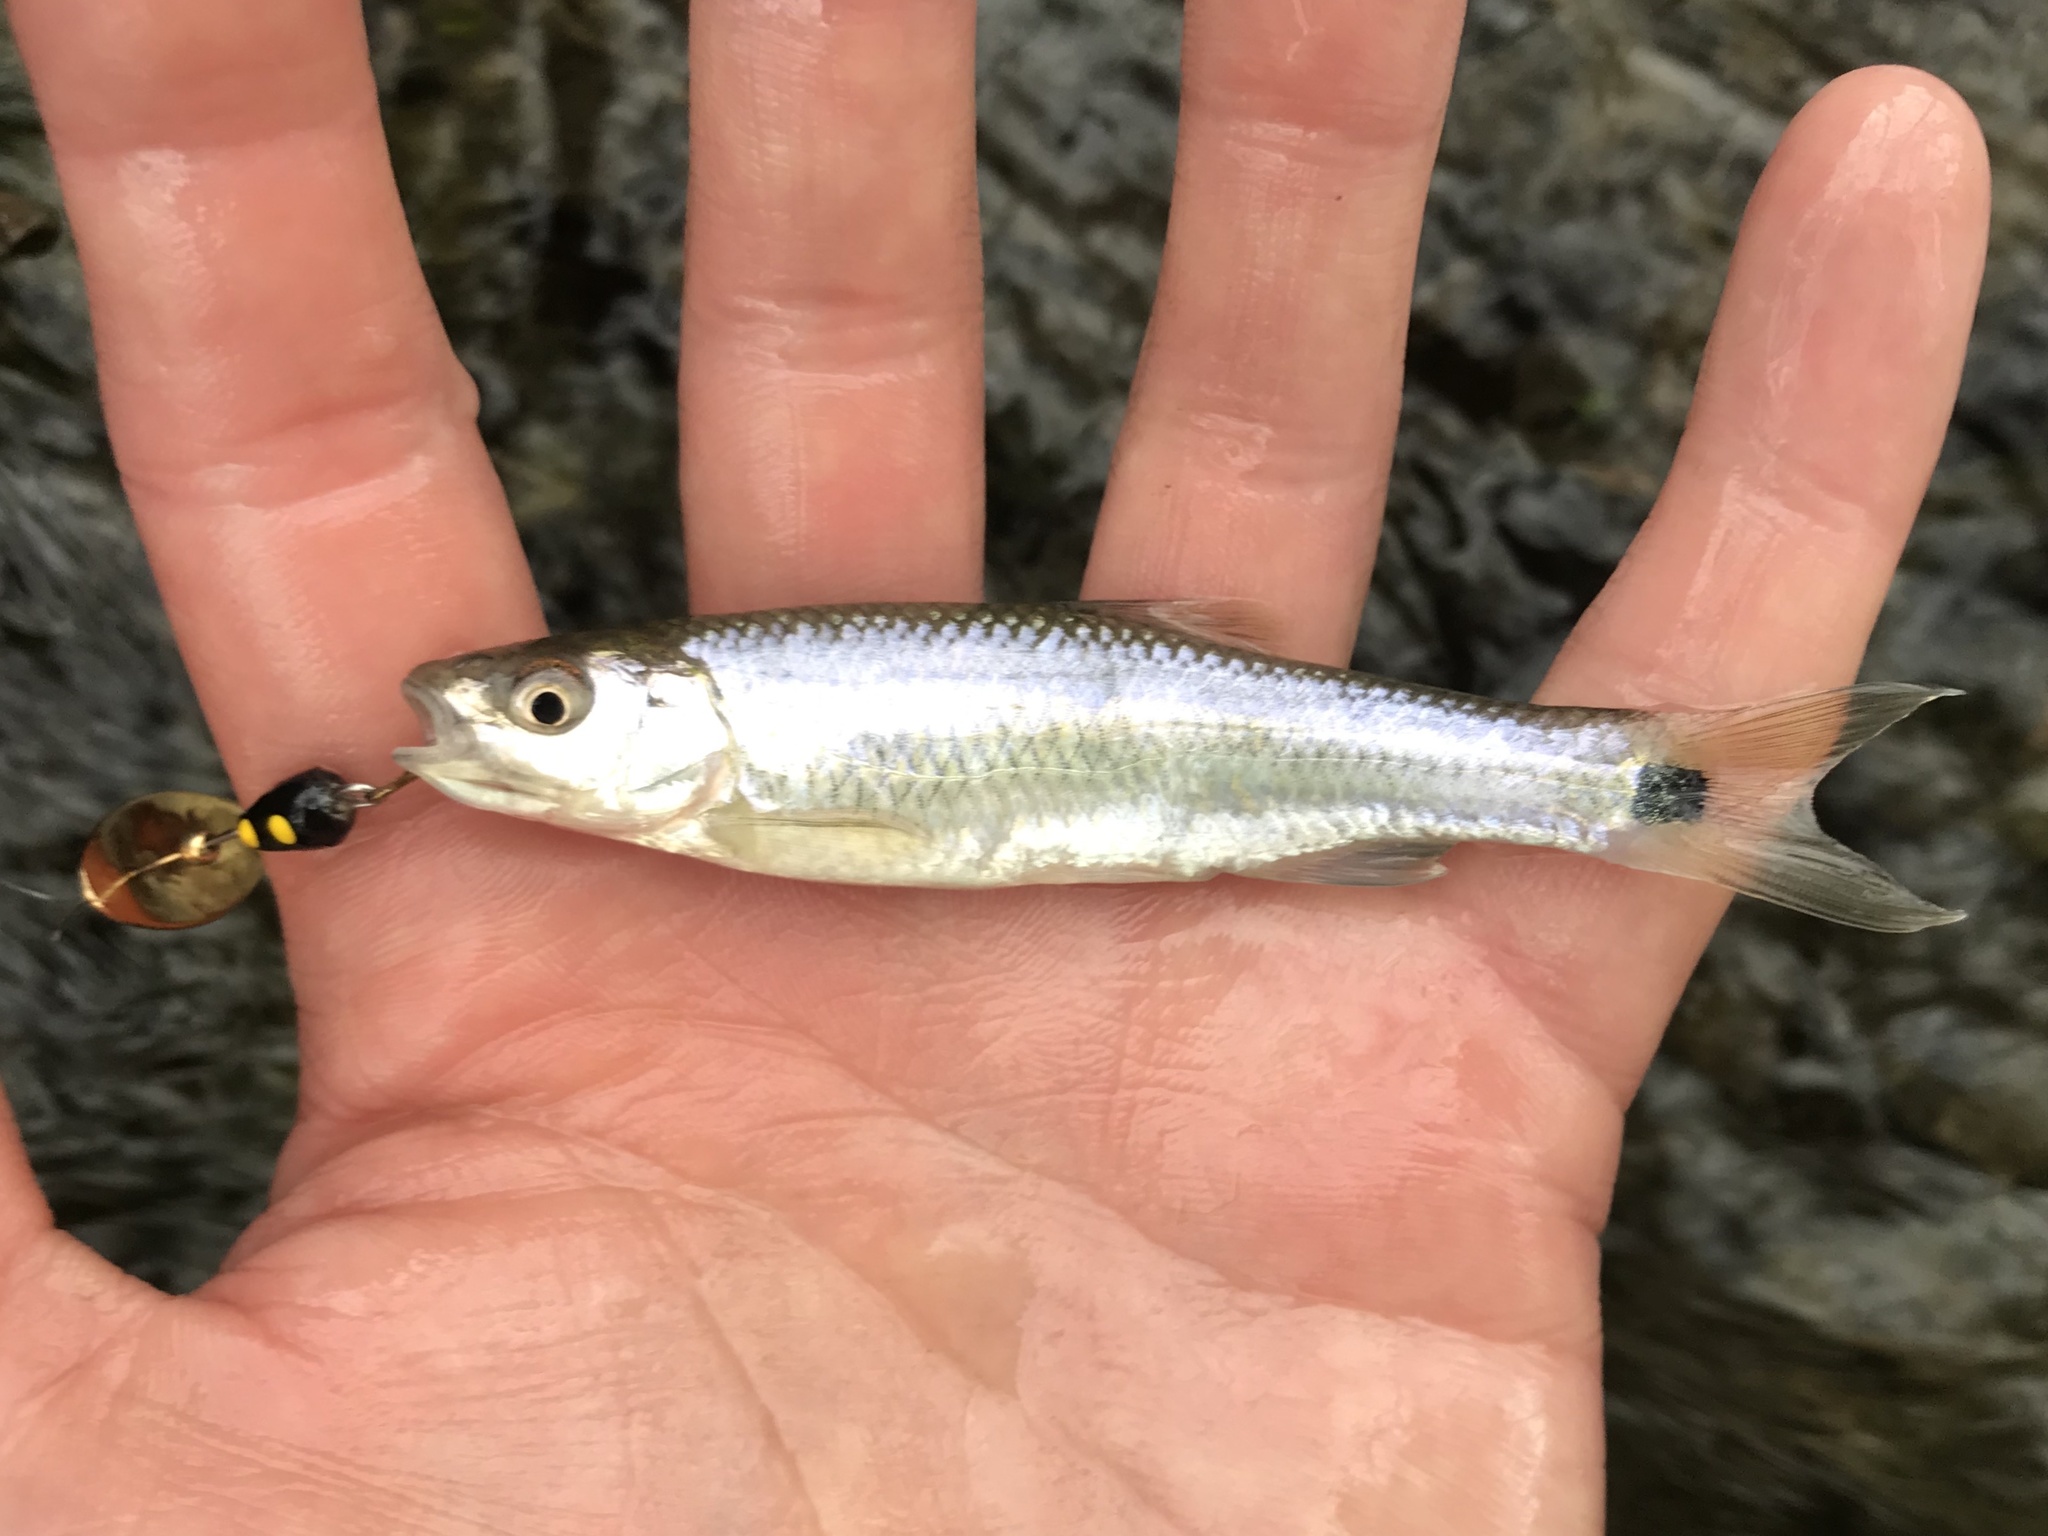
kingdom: Animalia
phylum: Chordata
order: Cypriniformes
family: Cyprinidae
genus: Cyprinella
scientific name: Cyprinella venusta
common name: Blacktail shiner
